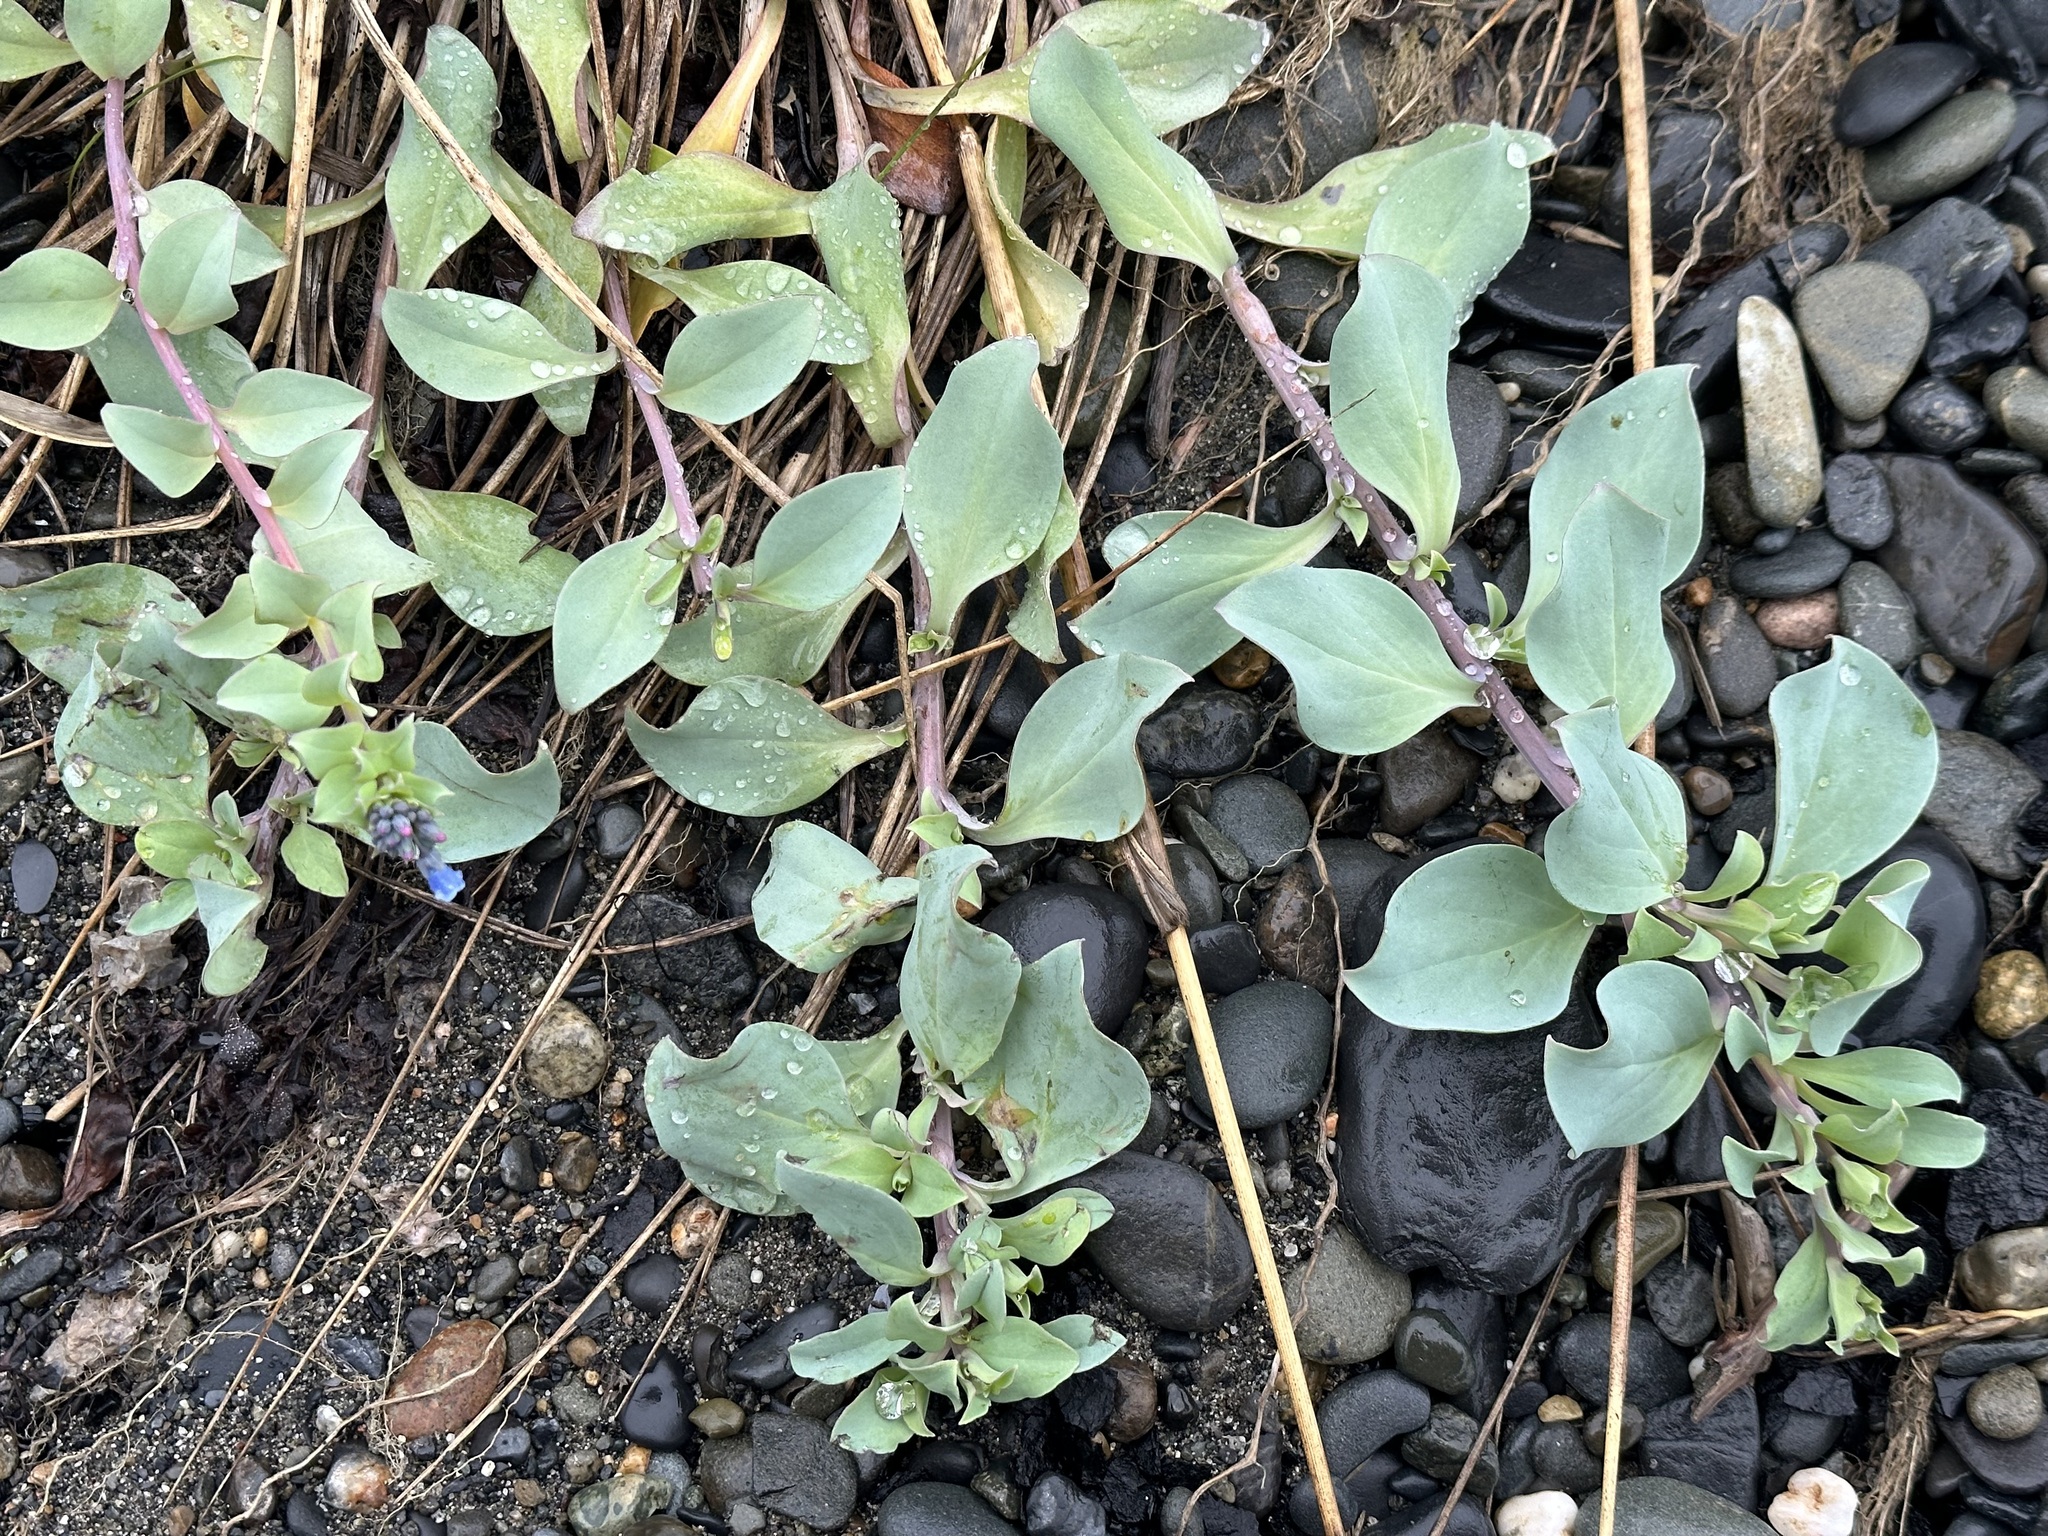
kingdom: Plantae
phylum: Tracheophyta
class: Magnoliopsida
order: Boraginales
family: Boraginaceae
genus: Mertensia
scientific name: Mertensia maritima
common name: Oysterplant
